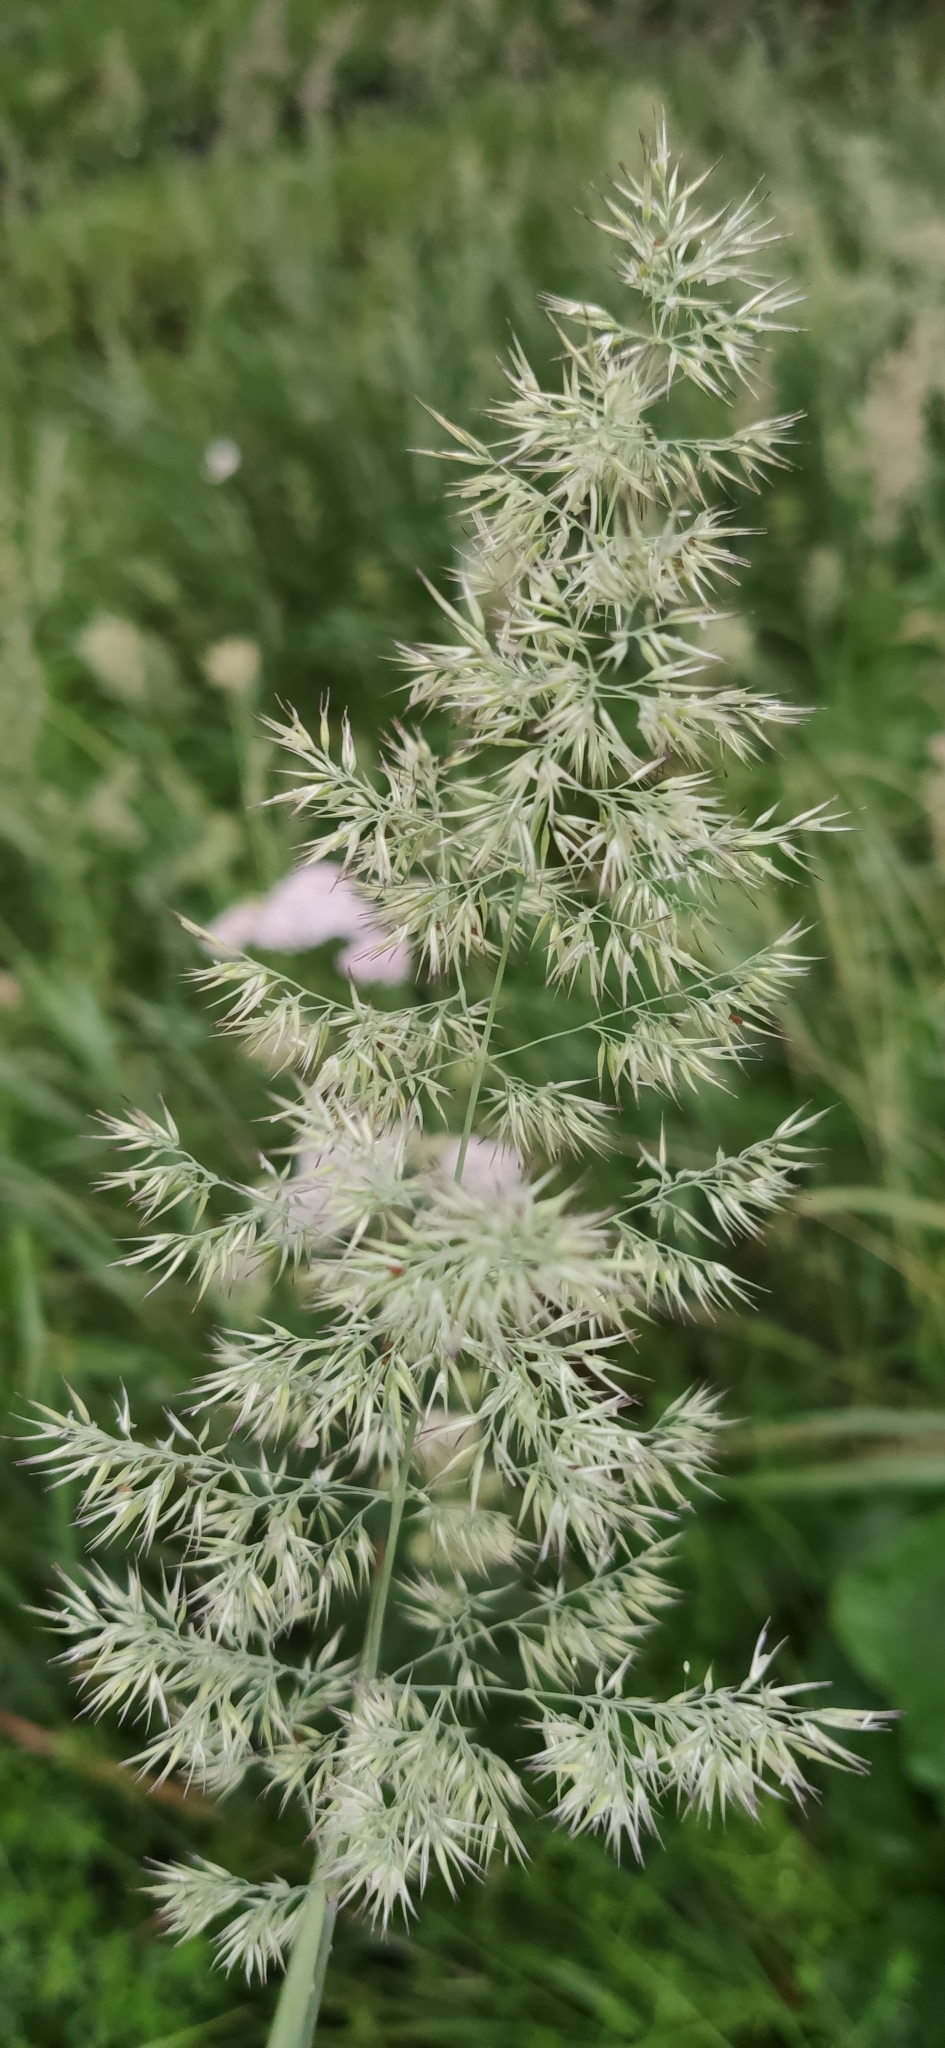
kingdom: Plantae
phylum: Tracheophyta
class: Liliopsida
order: Poales
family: Poaceae
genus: Calamagrostis
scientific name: Calamagrostis epigejos
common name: Wood small-reed
